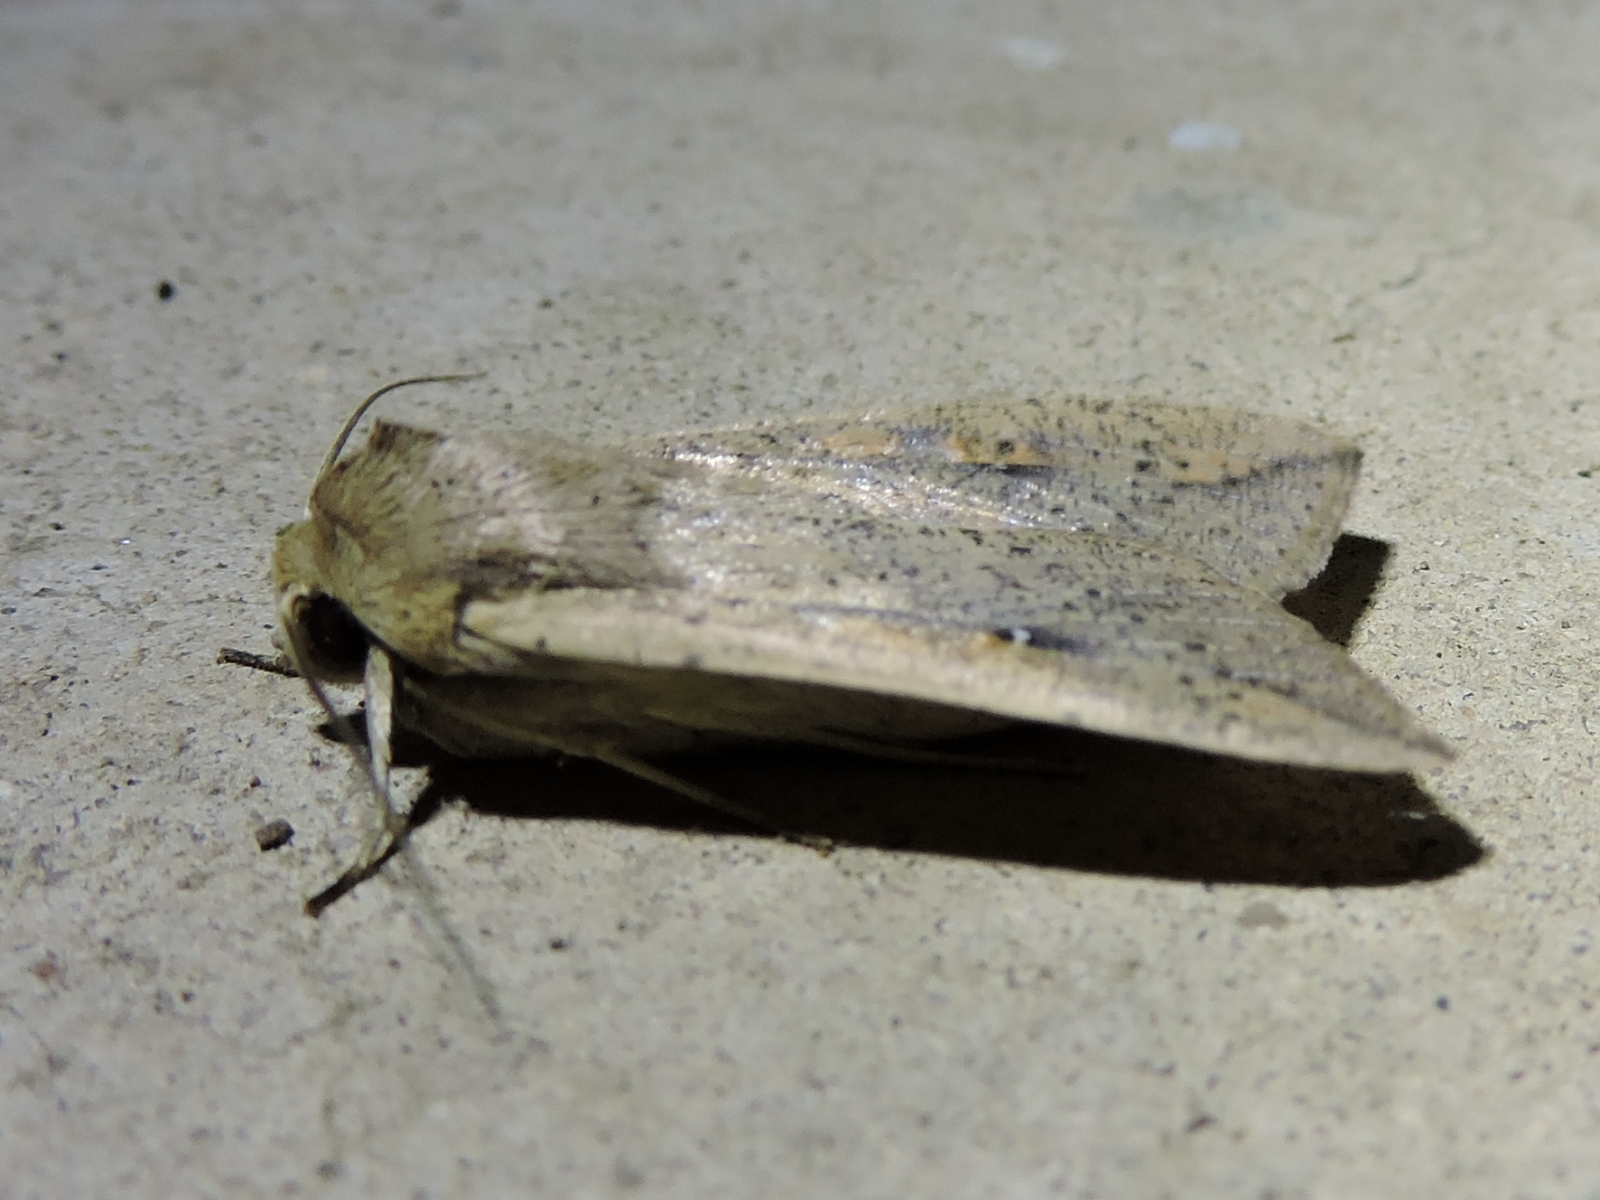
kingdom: Animalia
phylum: Arthropoda
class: Insecta
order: Lepidoptera
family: Noctuidae
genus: Mythimna
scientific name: Mythimna unipuncta
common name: White-speck
